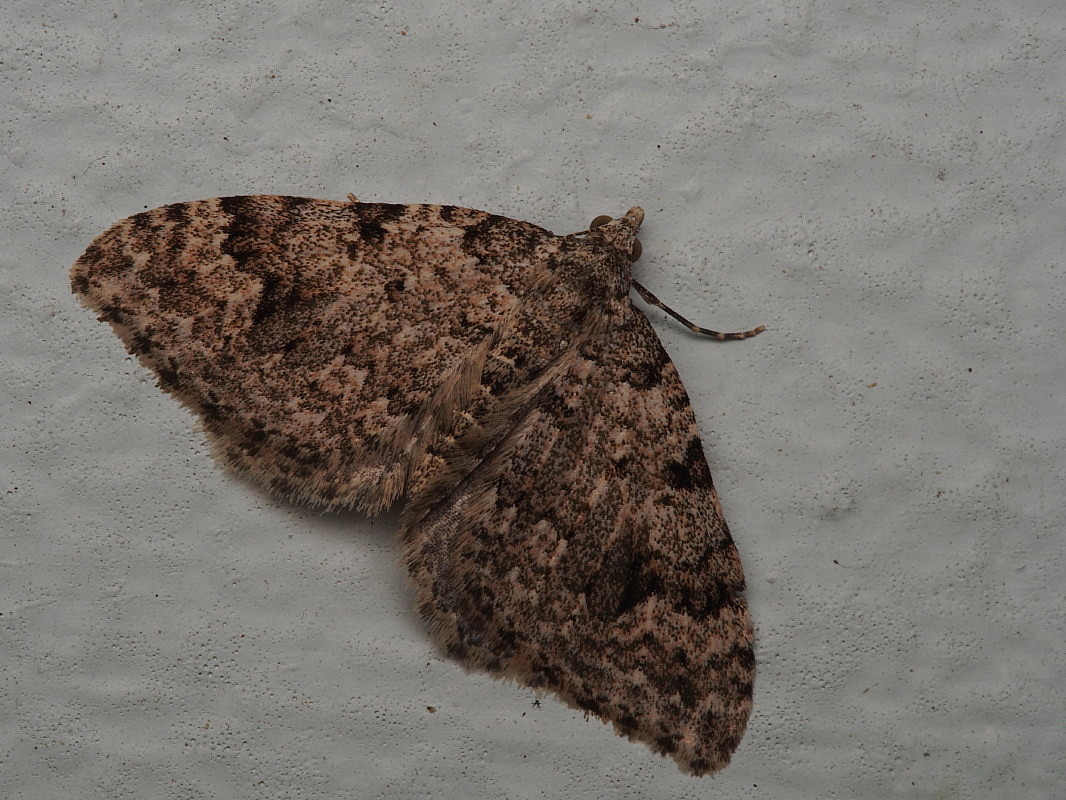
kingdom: Animalia
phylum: Arthropoda
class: Insecta
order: Lepidoptera
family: Geometridae
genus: Helastia
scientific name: Helastia cinerearia
